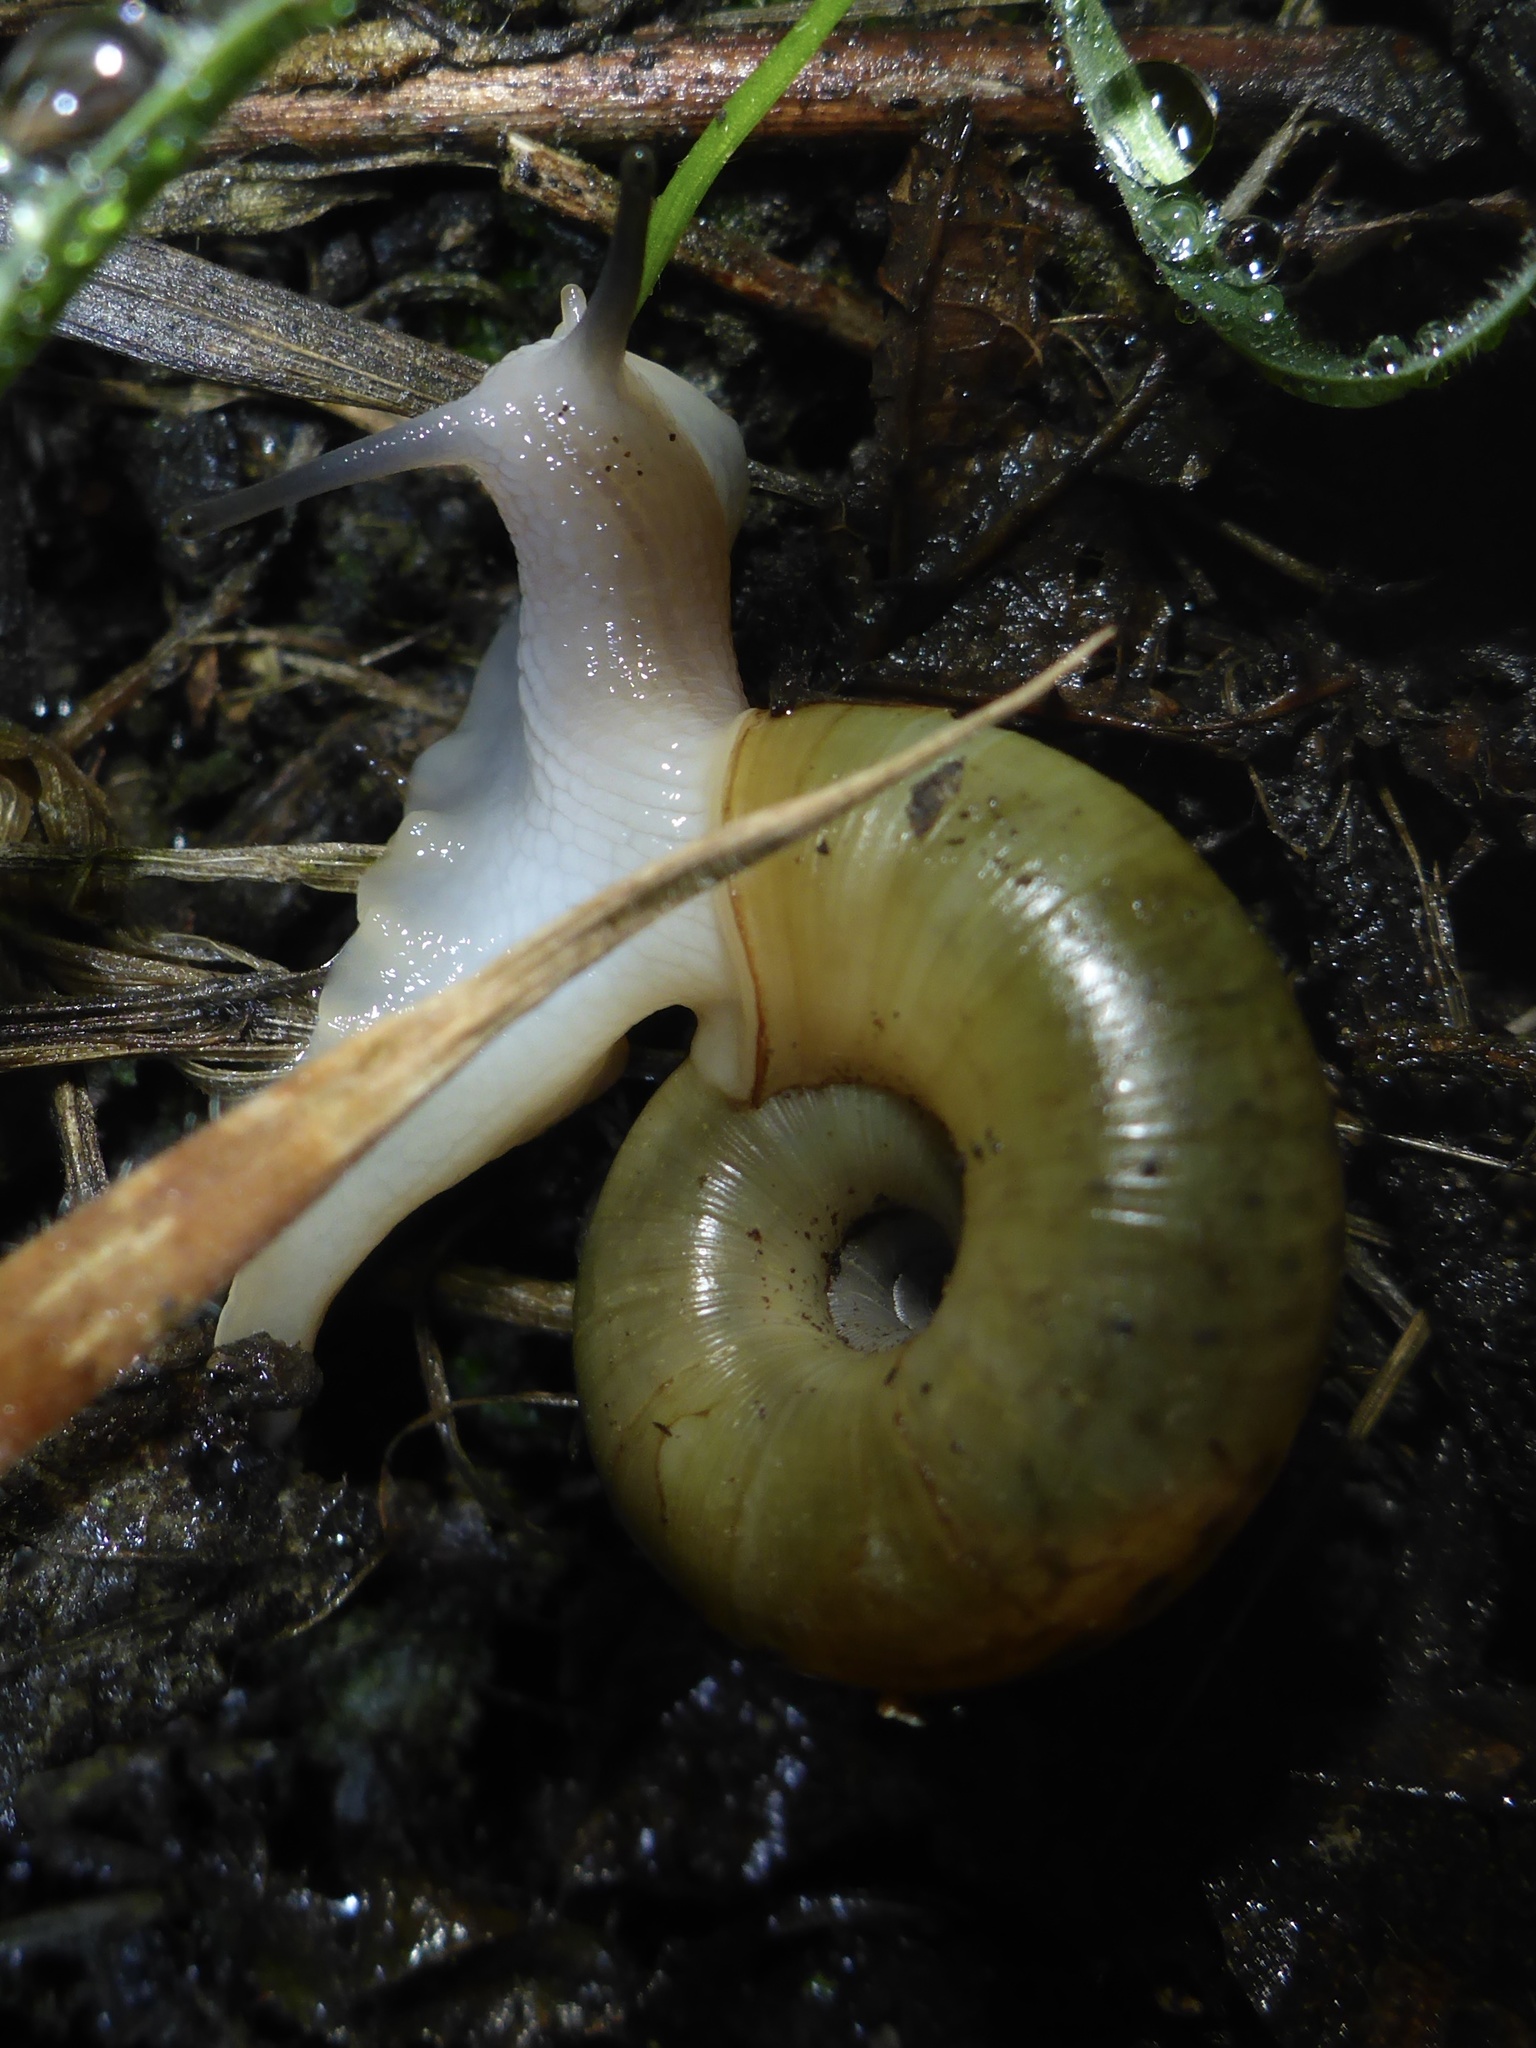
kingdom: Animalia
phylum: Mollusca
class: Gastropoda
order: Stylommatophora
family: Haplotrematidae
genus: Haplotrema
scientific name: Haplotrema minimum
